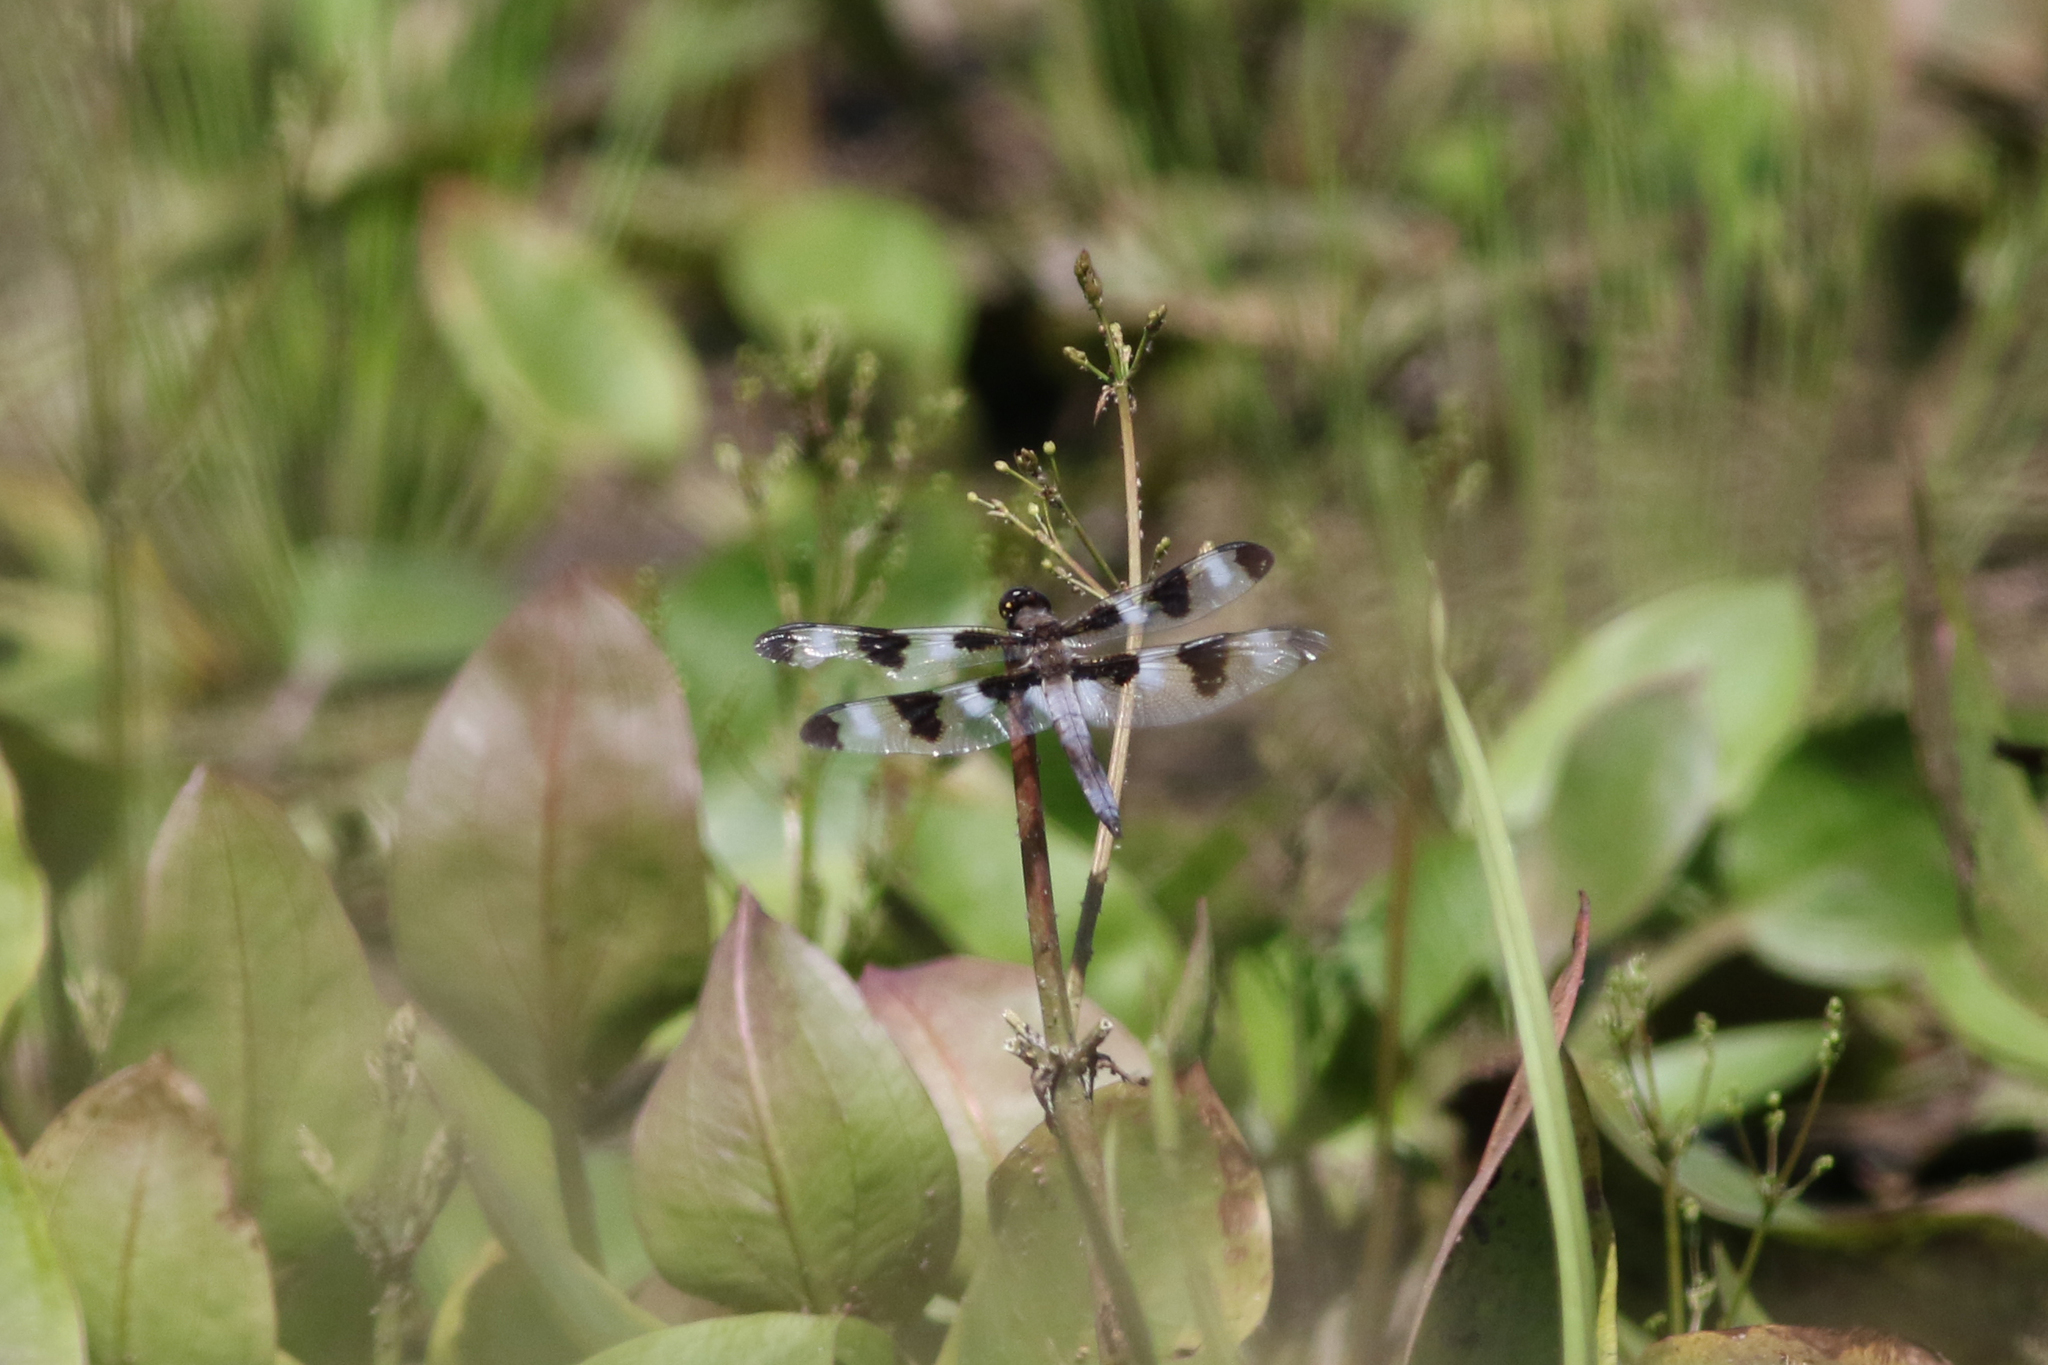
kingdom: Animalia
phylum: Arthropoda
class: Insecta
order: Odonata
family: Libellulidae
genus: Libellula
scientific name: Libellula pulchella
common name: Twelve-spotted skimmer
